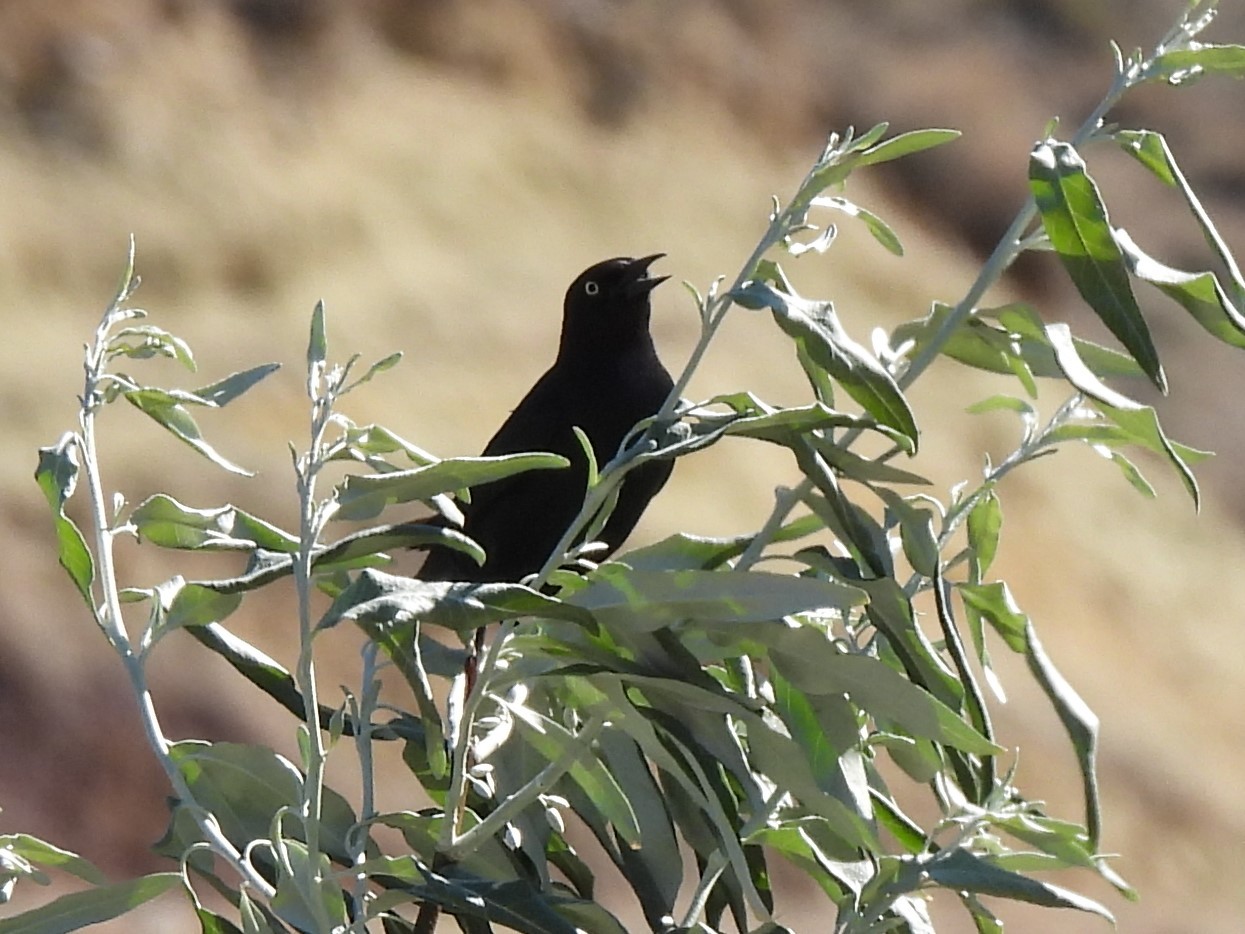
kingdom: Animalia
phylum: Chordata
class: Aves
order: Passeriformes
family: Icteridae
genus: Euphagus
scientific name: Euphagus cyanocephalus
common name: Brewer's blackbird
